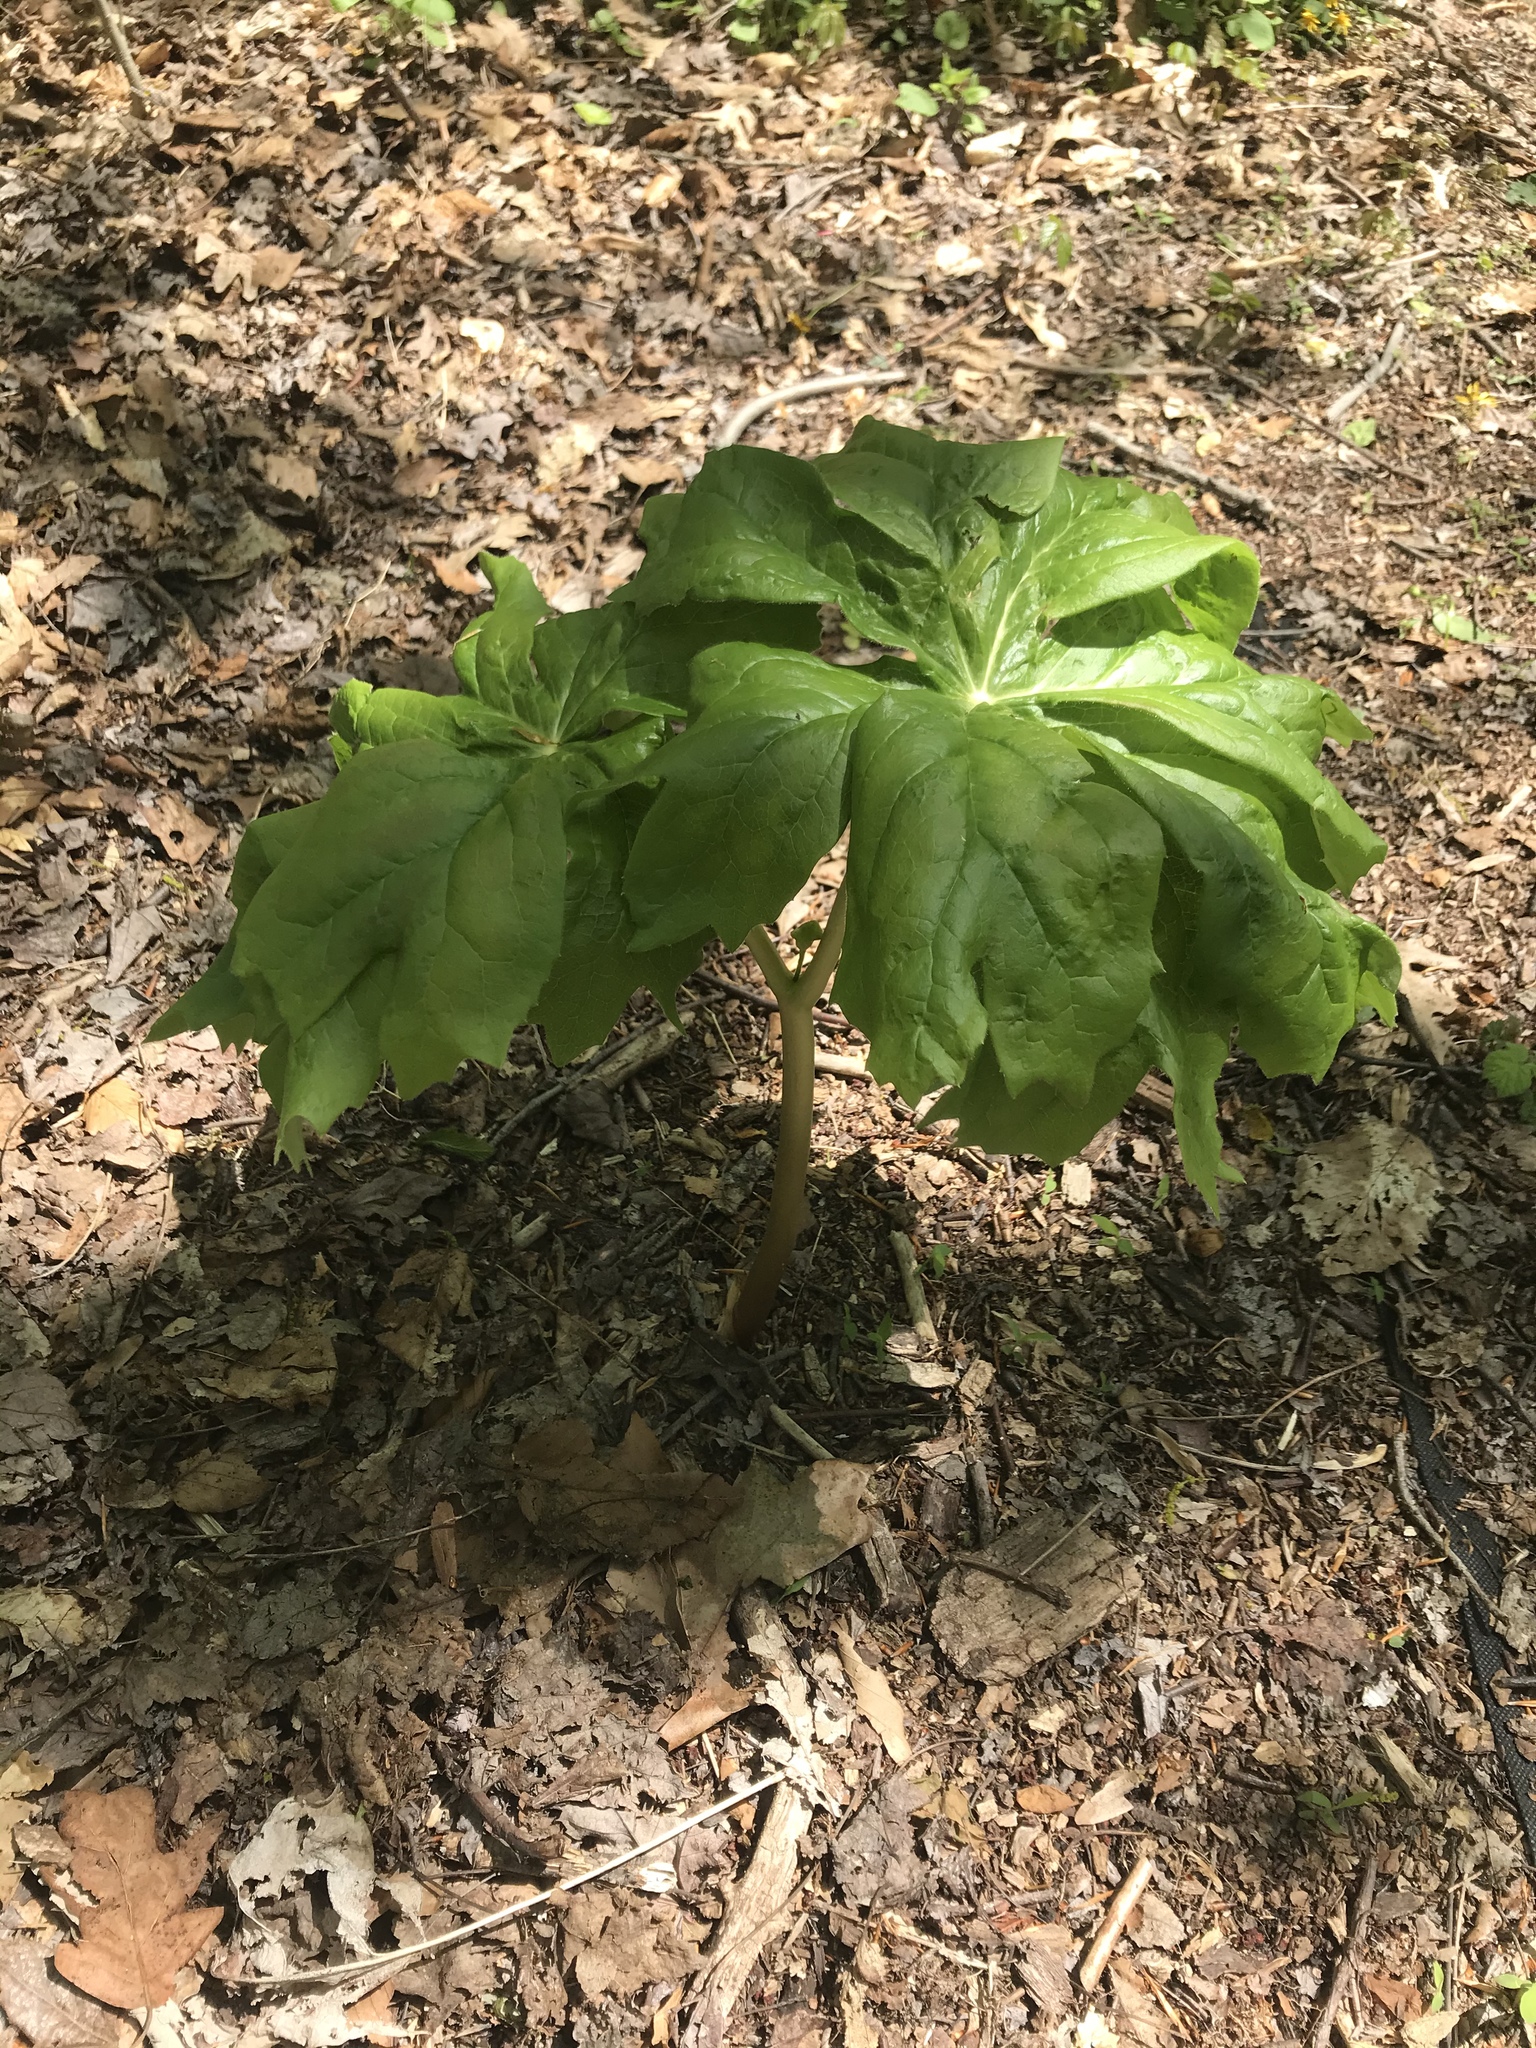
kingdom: Plantae
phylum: Tracheophyta
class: Magnoliopsida
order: Ranunculales
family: Berberidaceae
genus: Podophyllum
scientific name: Podophyllum peltatum
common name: Wild mandrake
